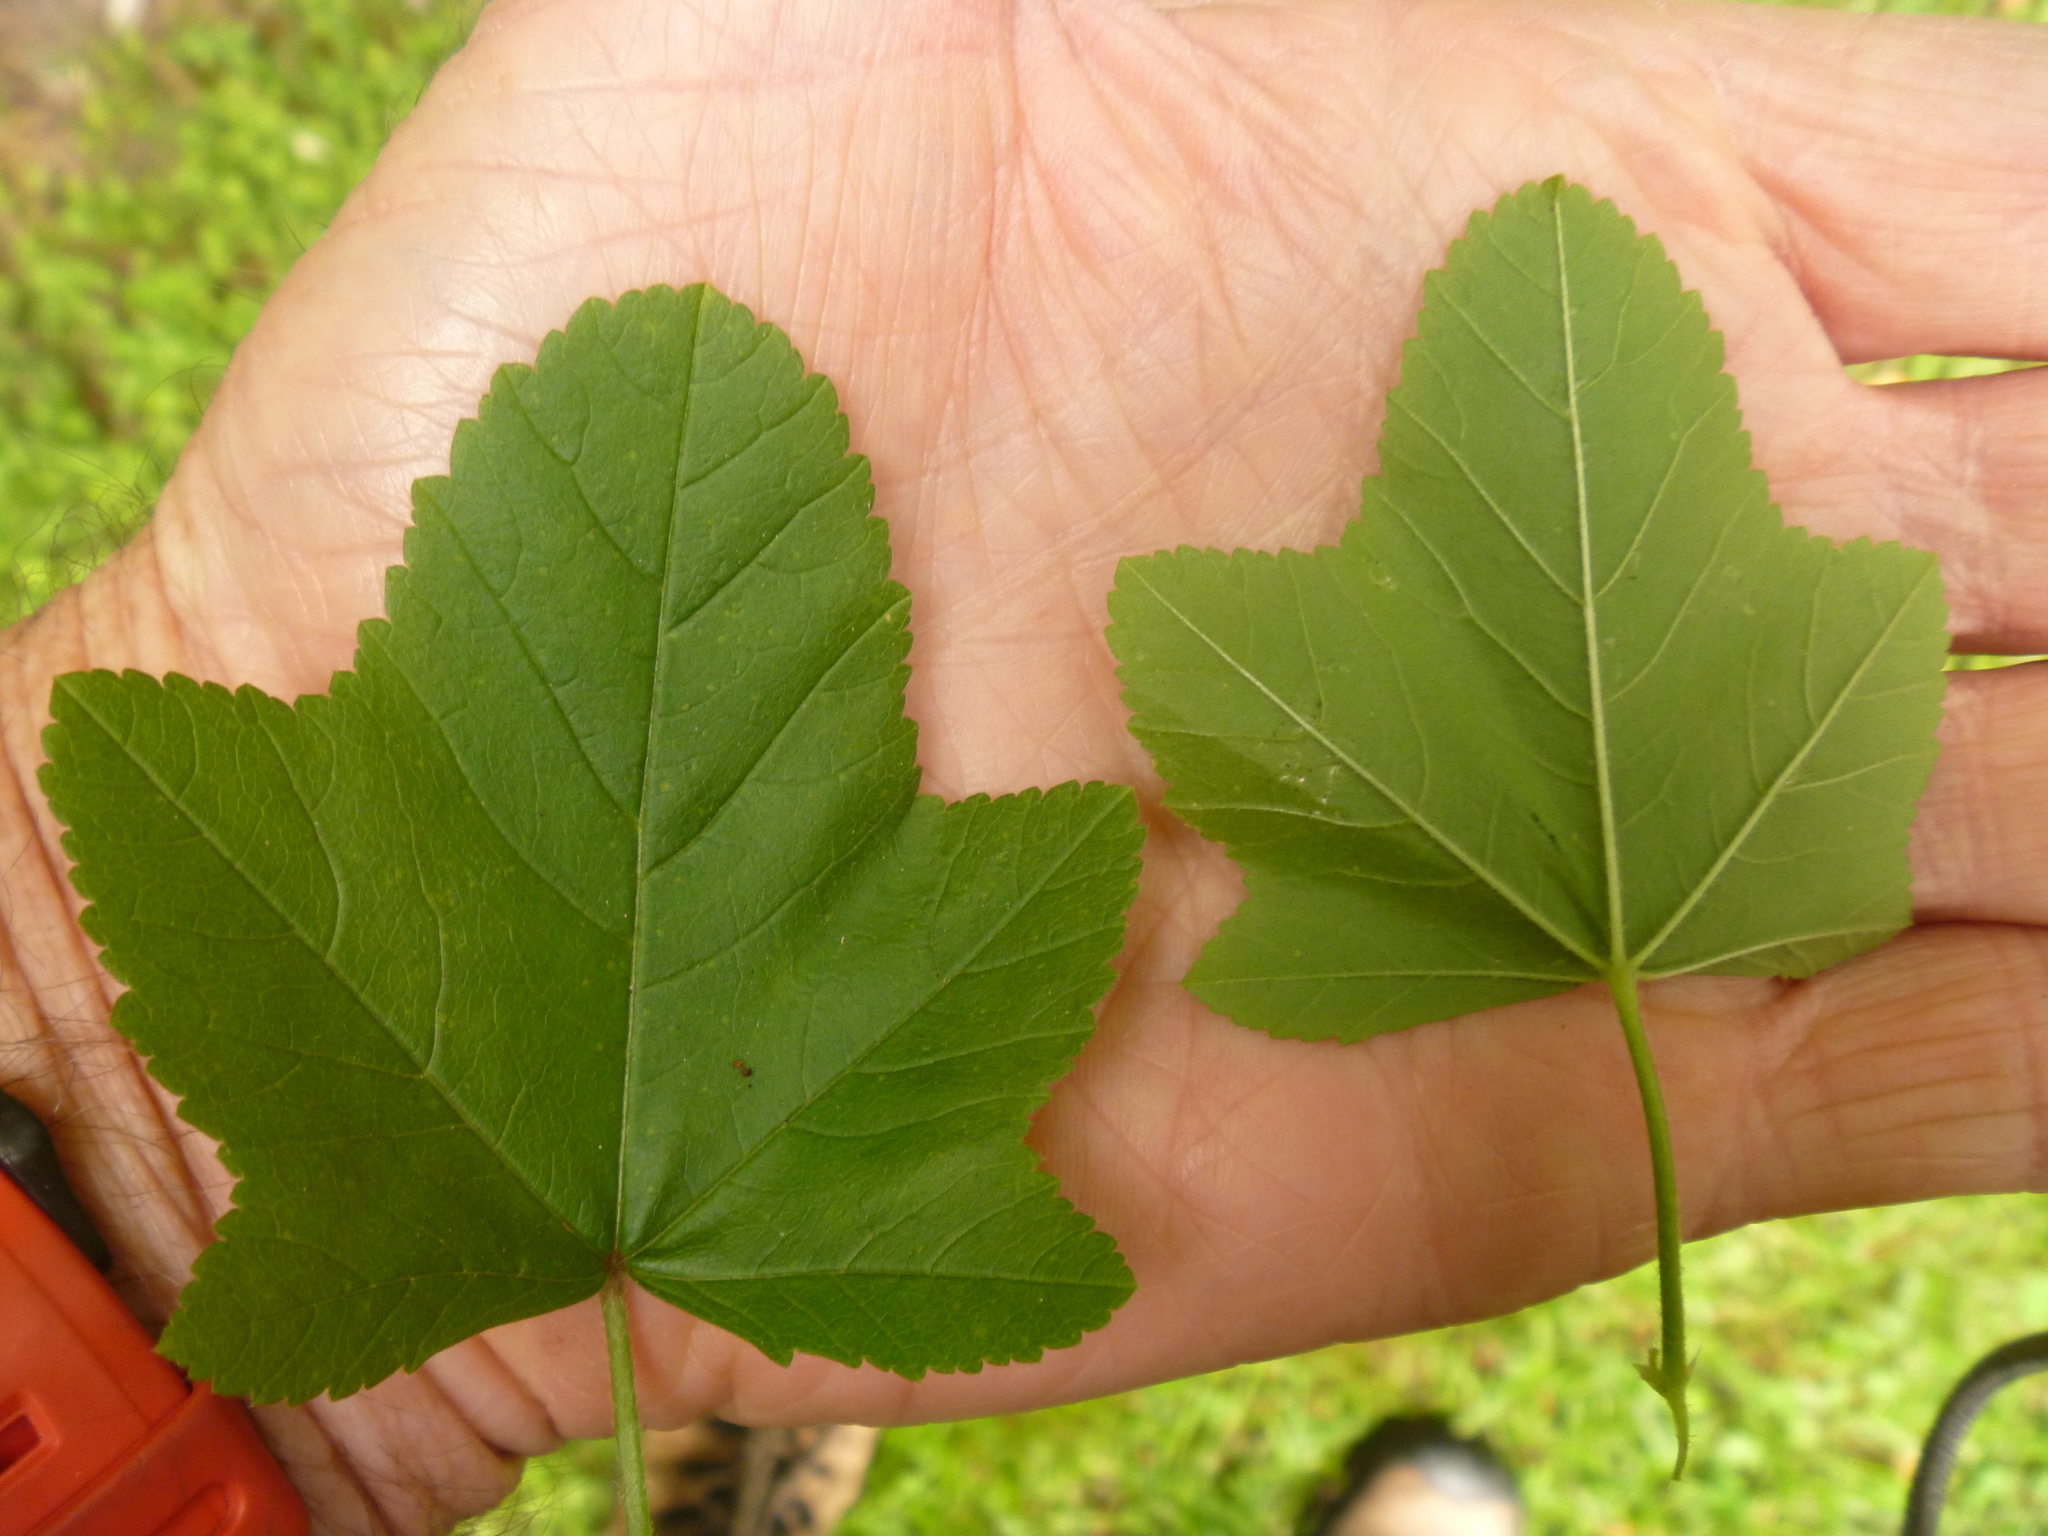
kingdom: Plantae
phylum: Tracheophyta
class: Magnoliopsida
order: Malvales
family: Malvaceae
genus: Malva
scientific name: Malva multiflora
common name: Cheeseweed
